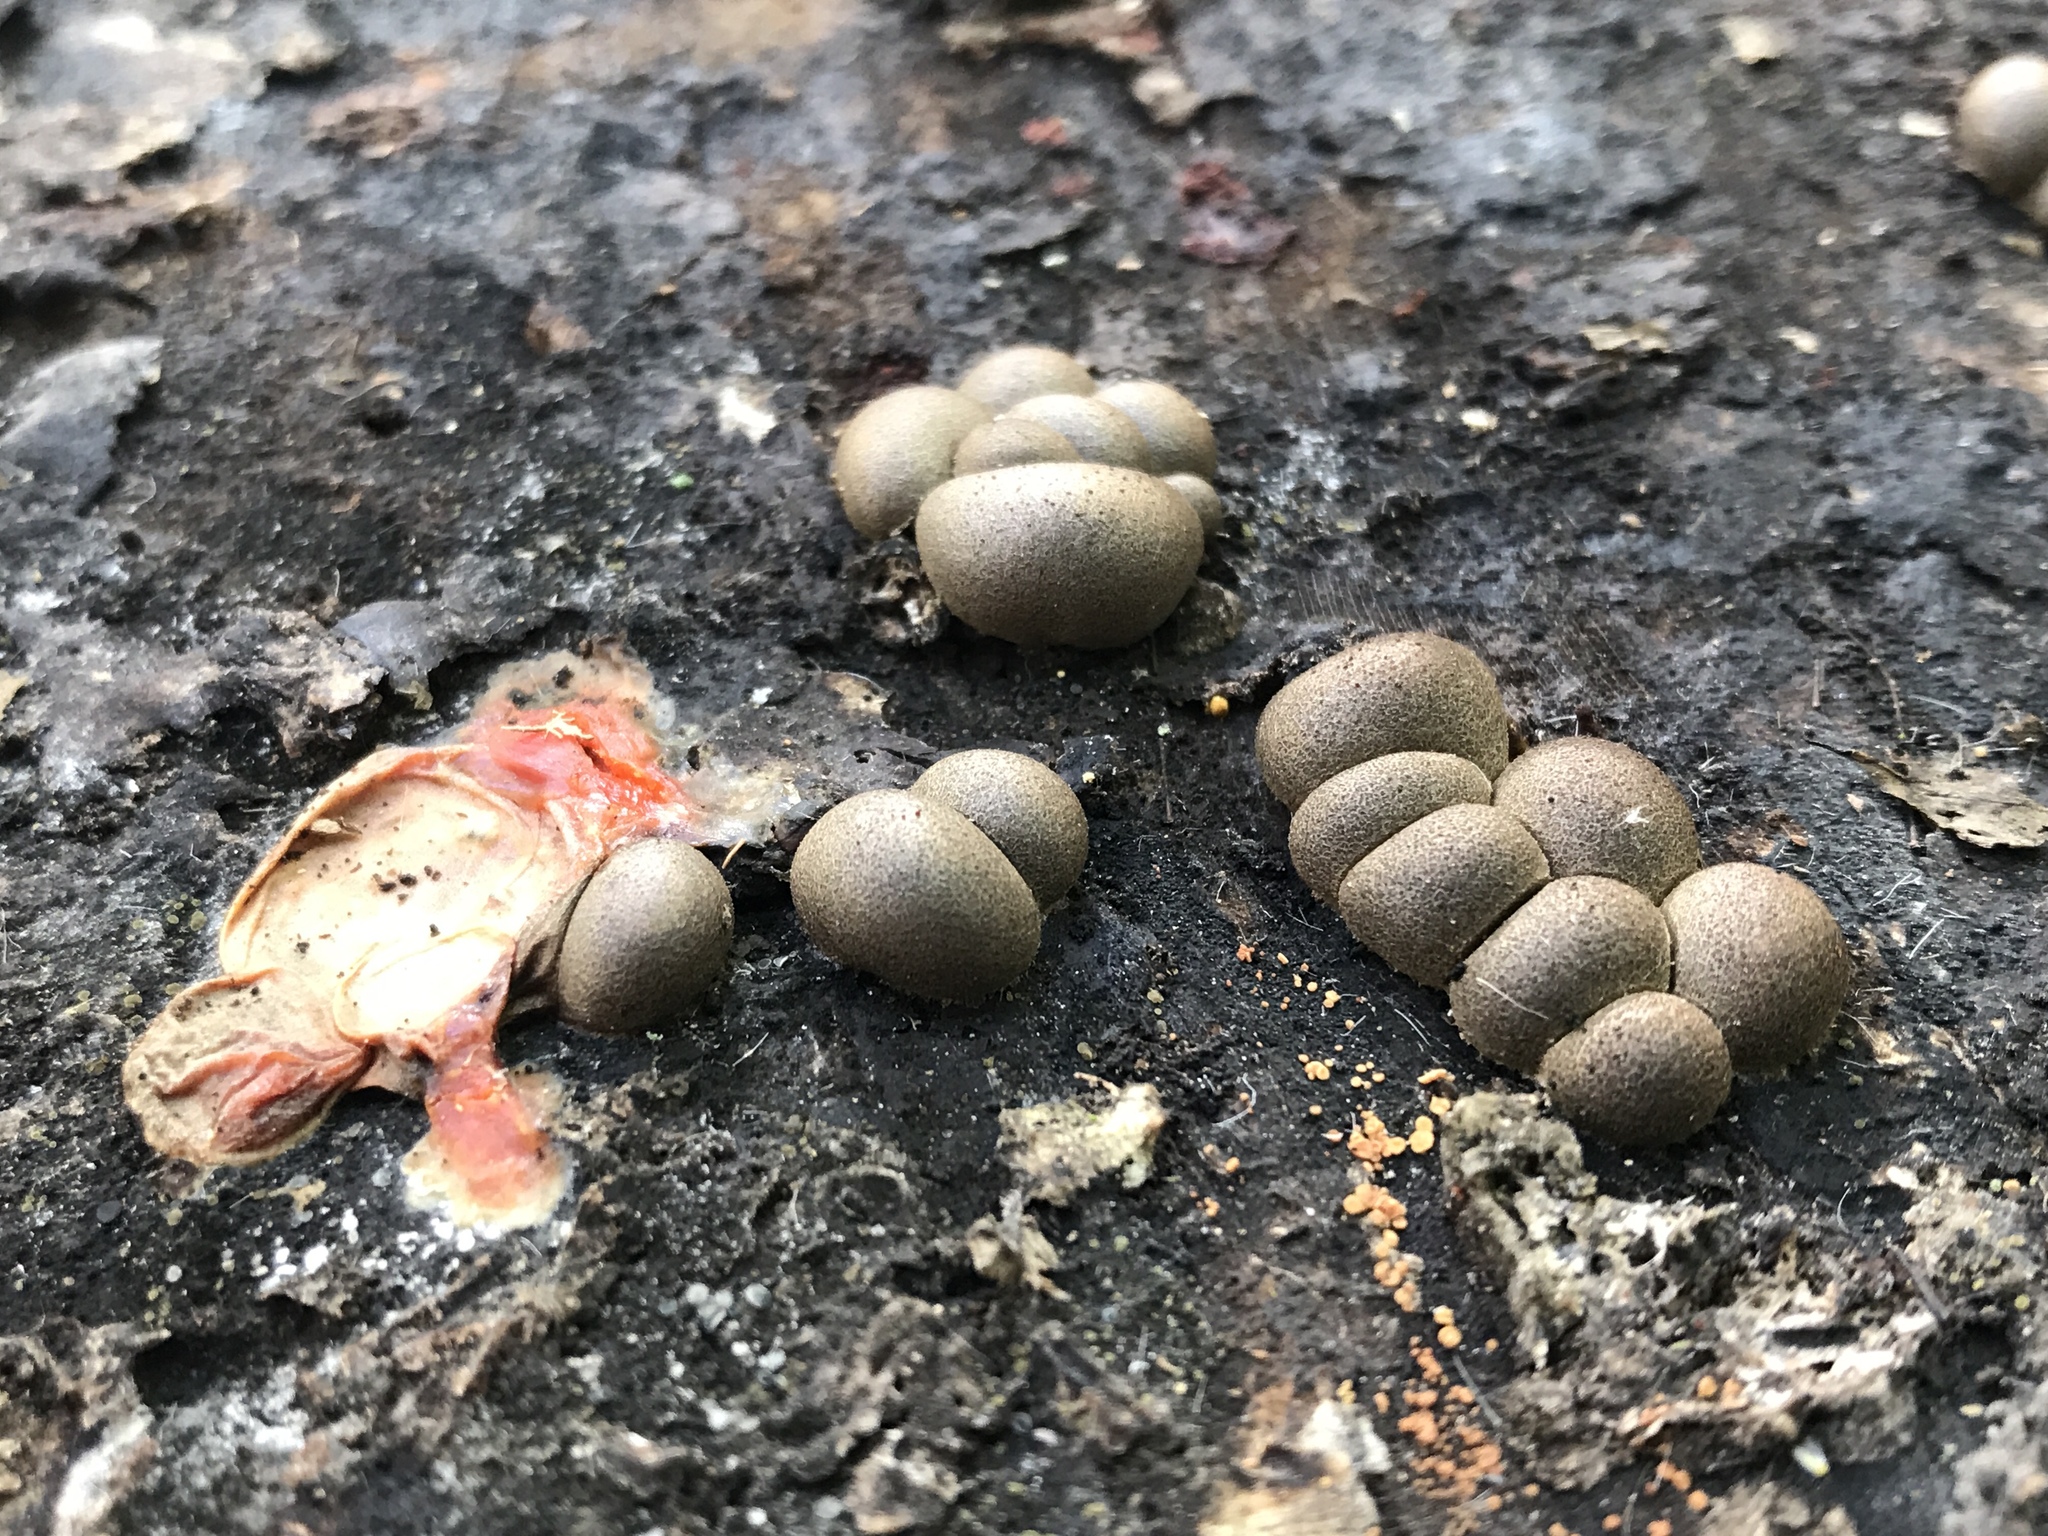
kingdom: Protozoa
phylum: Mycetozoa
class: Myxomycetes
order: Cribrariales
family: Tubiferaceae
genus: Lycogala
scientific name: Lycogala epidendrum
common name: Wolf's milk
